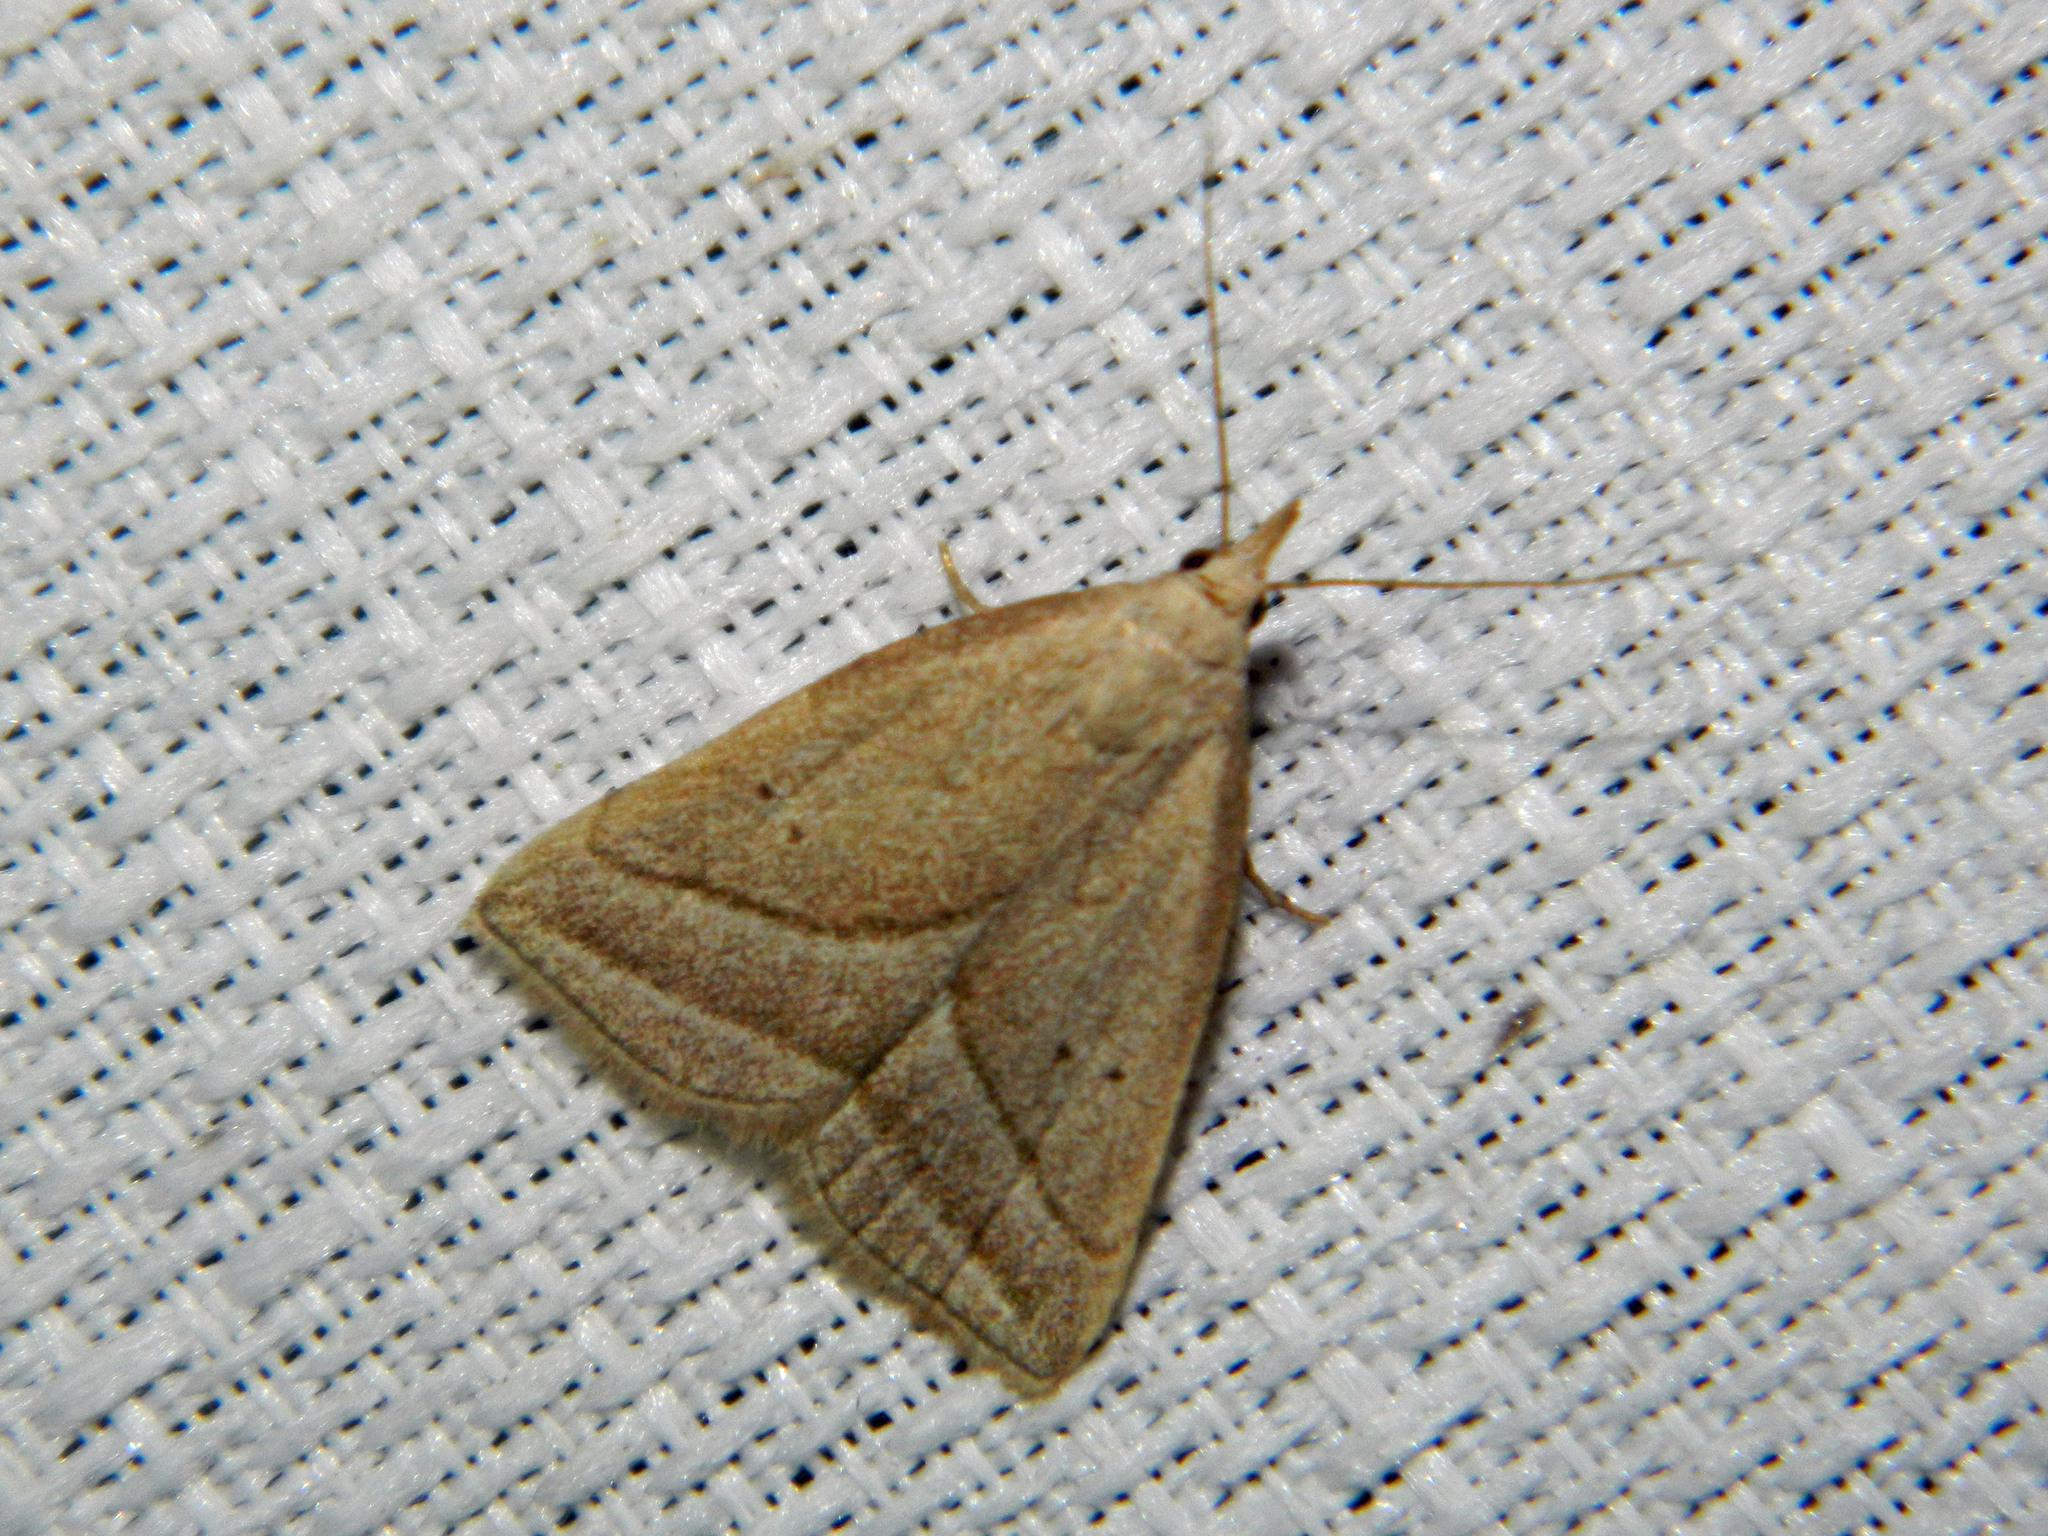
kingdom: Animalia
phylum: Arthropoda
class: Insecta
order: Lepidoptera
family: Erebidae
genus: Macrochilo
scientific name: Macrochilo absorptalis
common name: Slant-lined owlet
